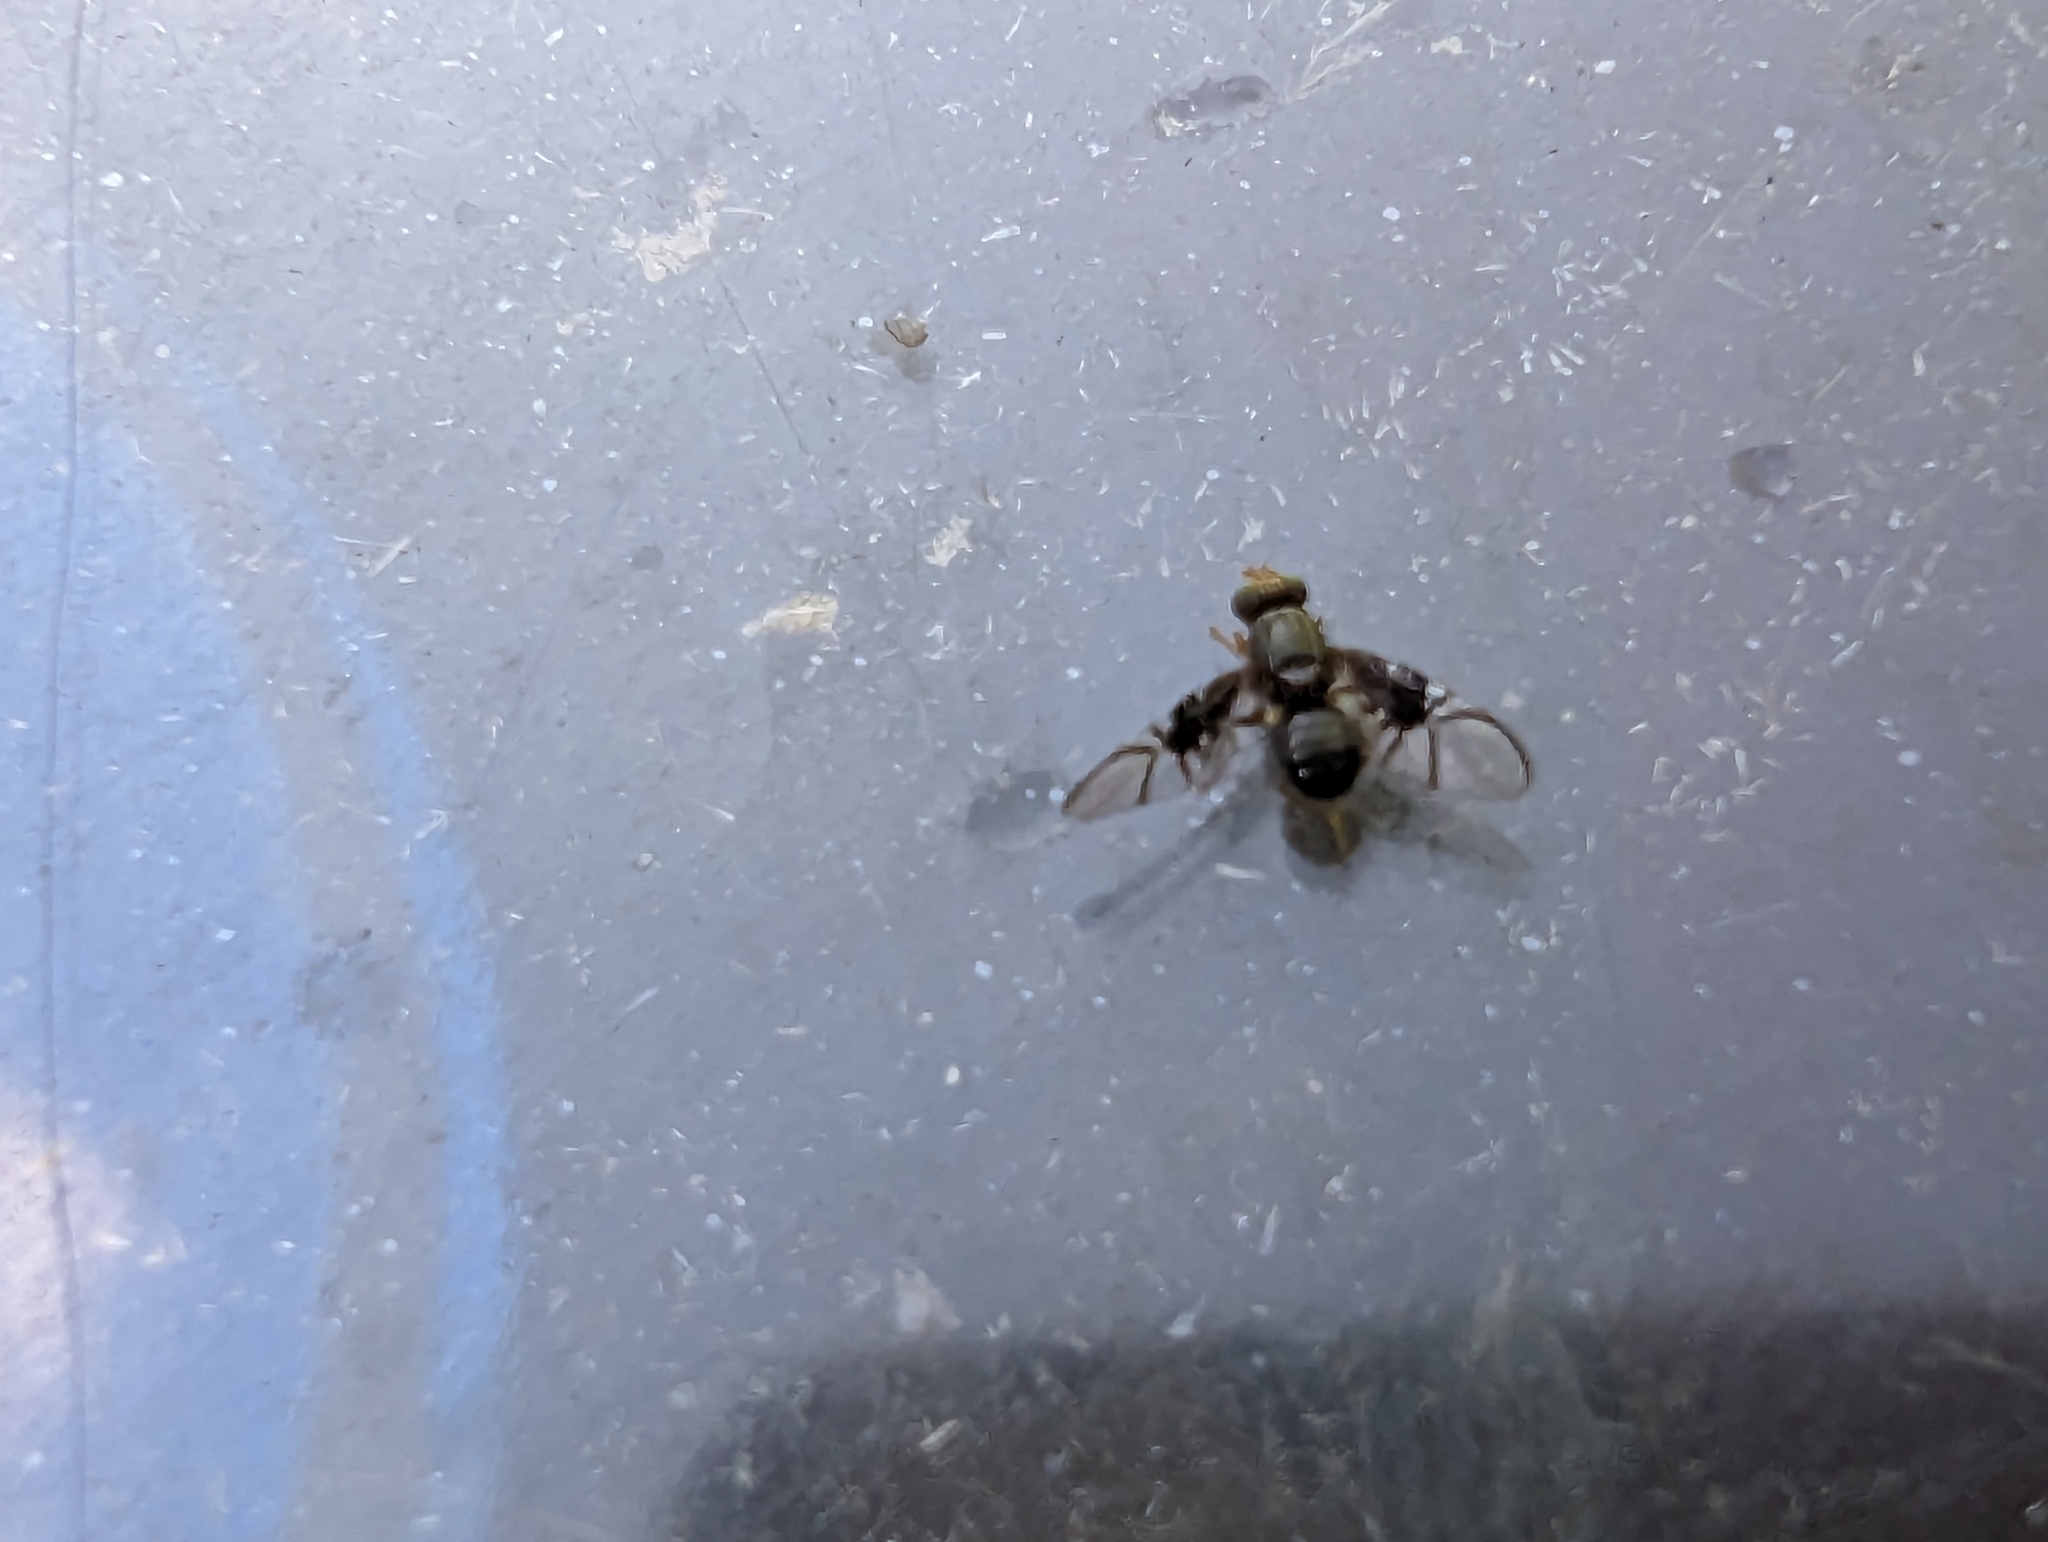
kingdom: Animalia
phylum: Arthropoda
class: Insecta
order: Diptera
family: Tephritidae
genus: Anomoia
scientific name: Anomoia purmunda
